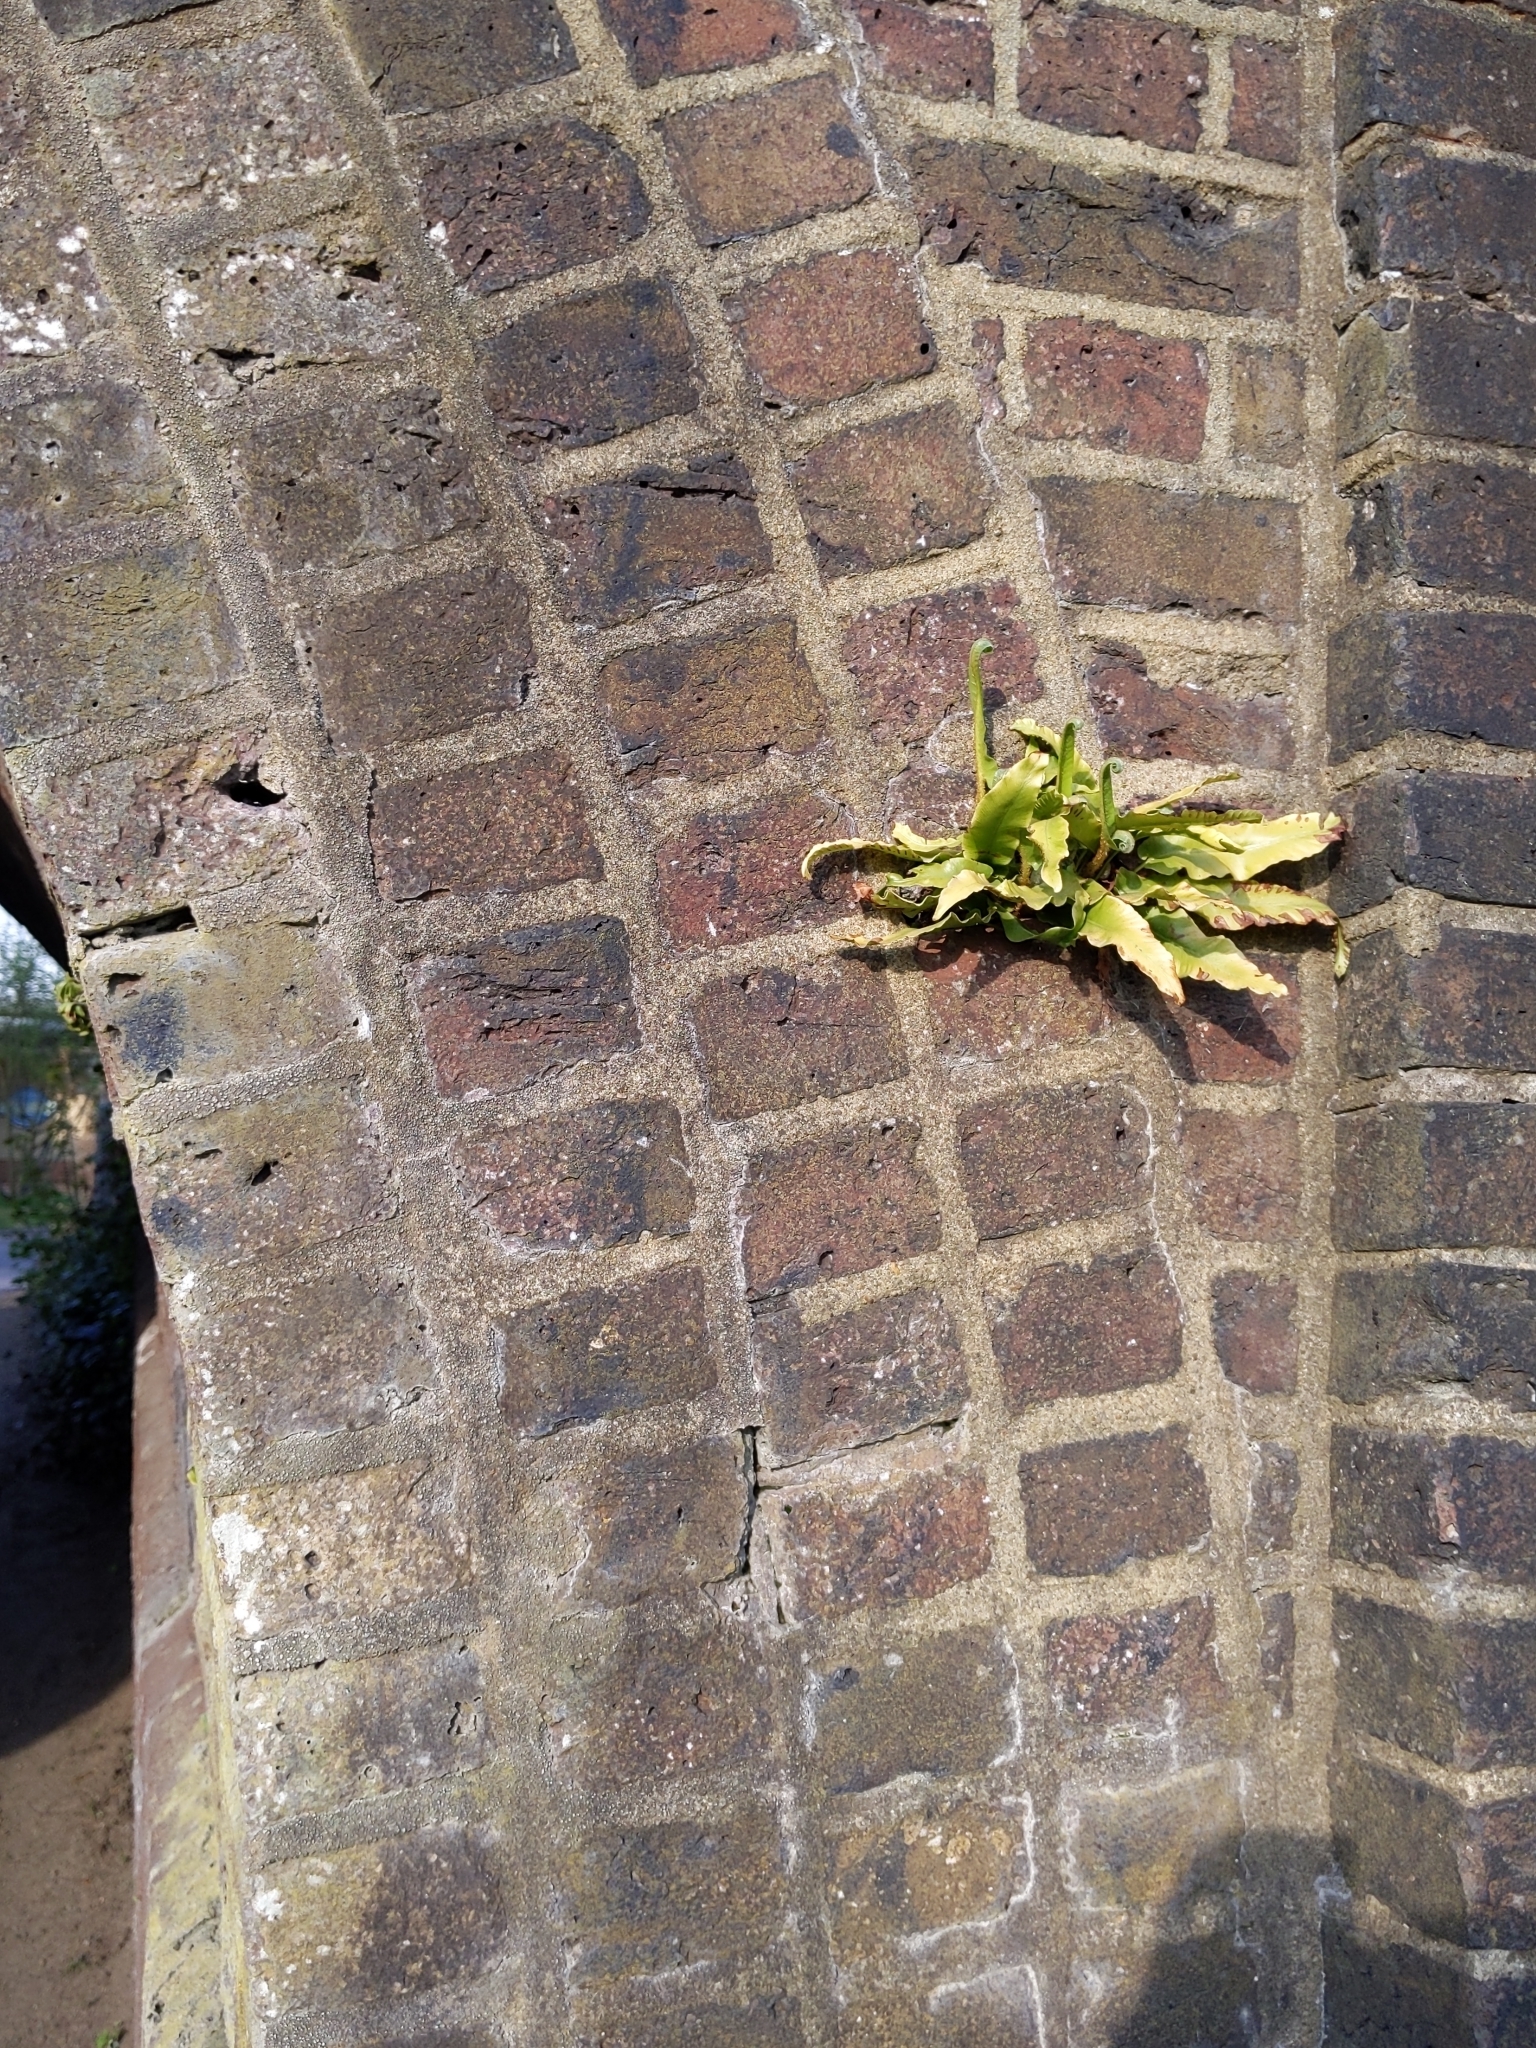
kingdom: Plantae
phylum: Tracheophyta
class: Polypodiopsida
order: Polypodiales
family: Aspleniaceae
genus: Asplenium
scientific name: Asplenium scolopendrium
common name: Hart's-tongue fern
